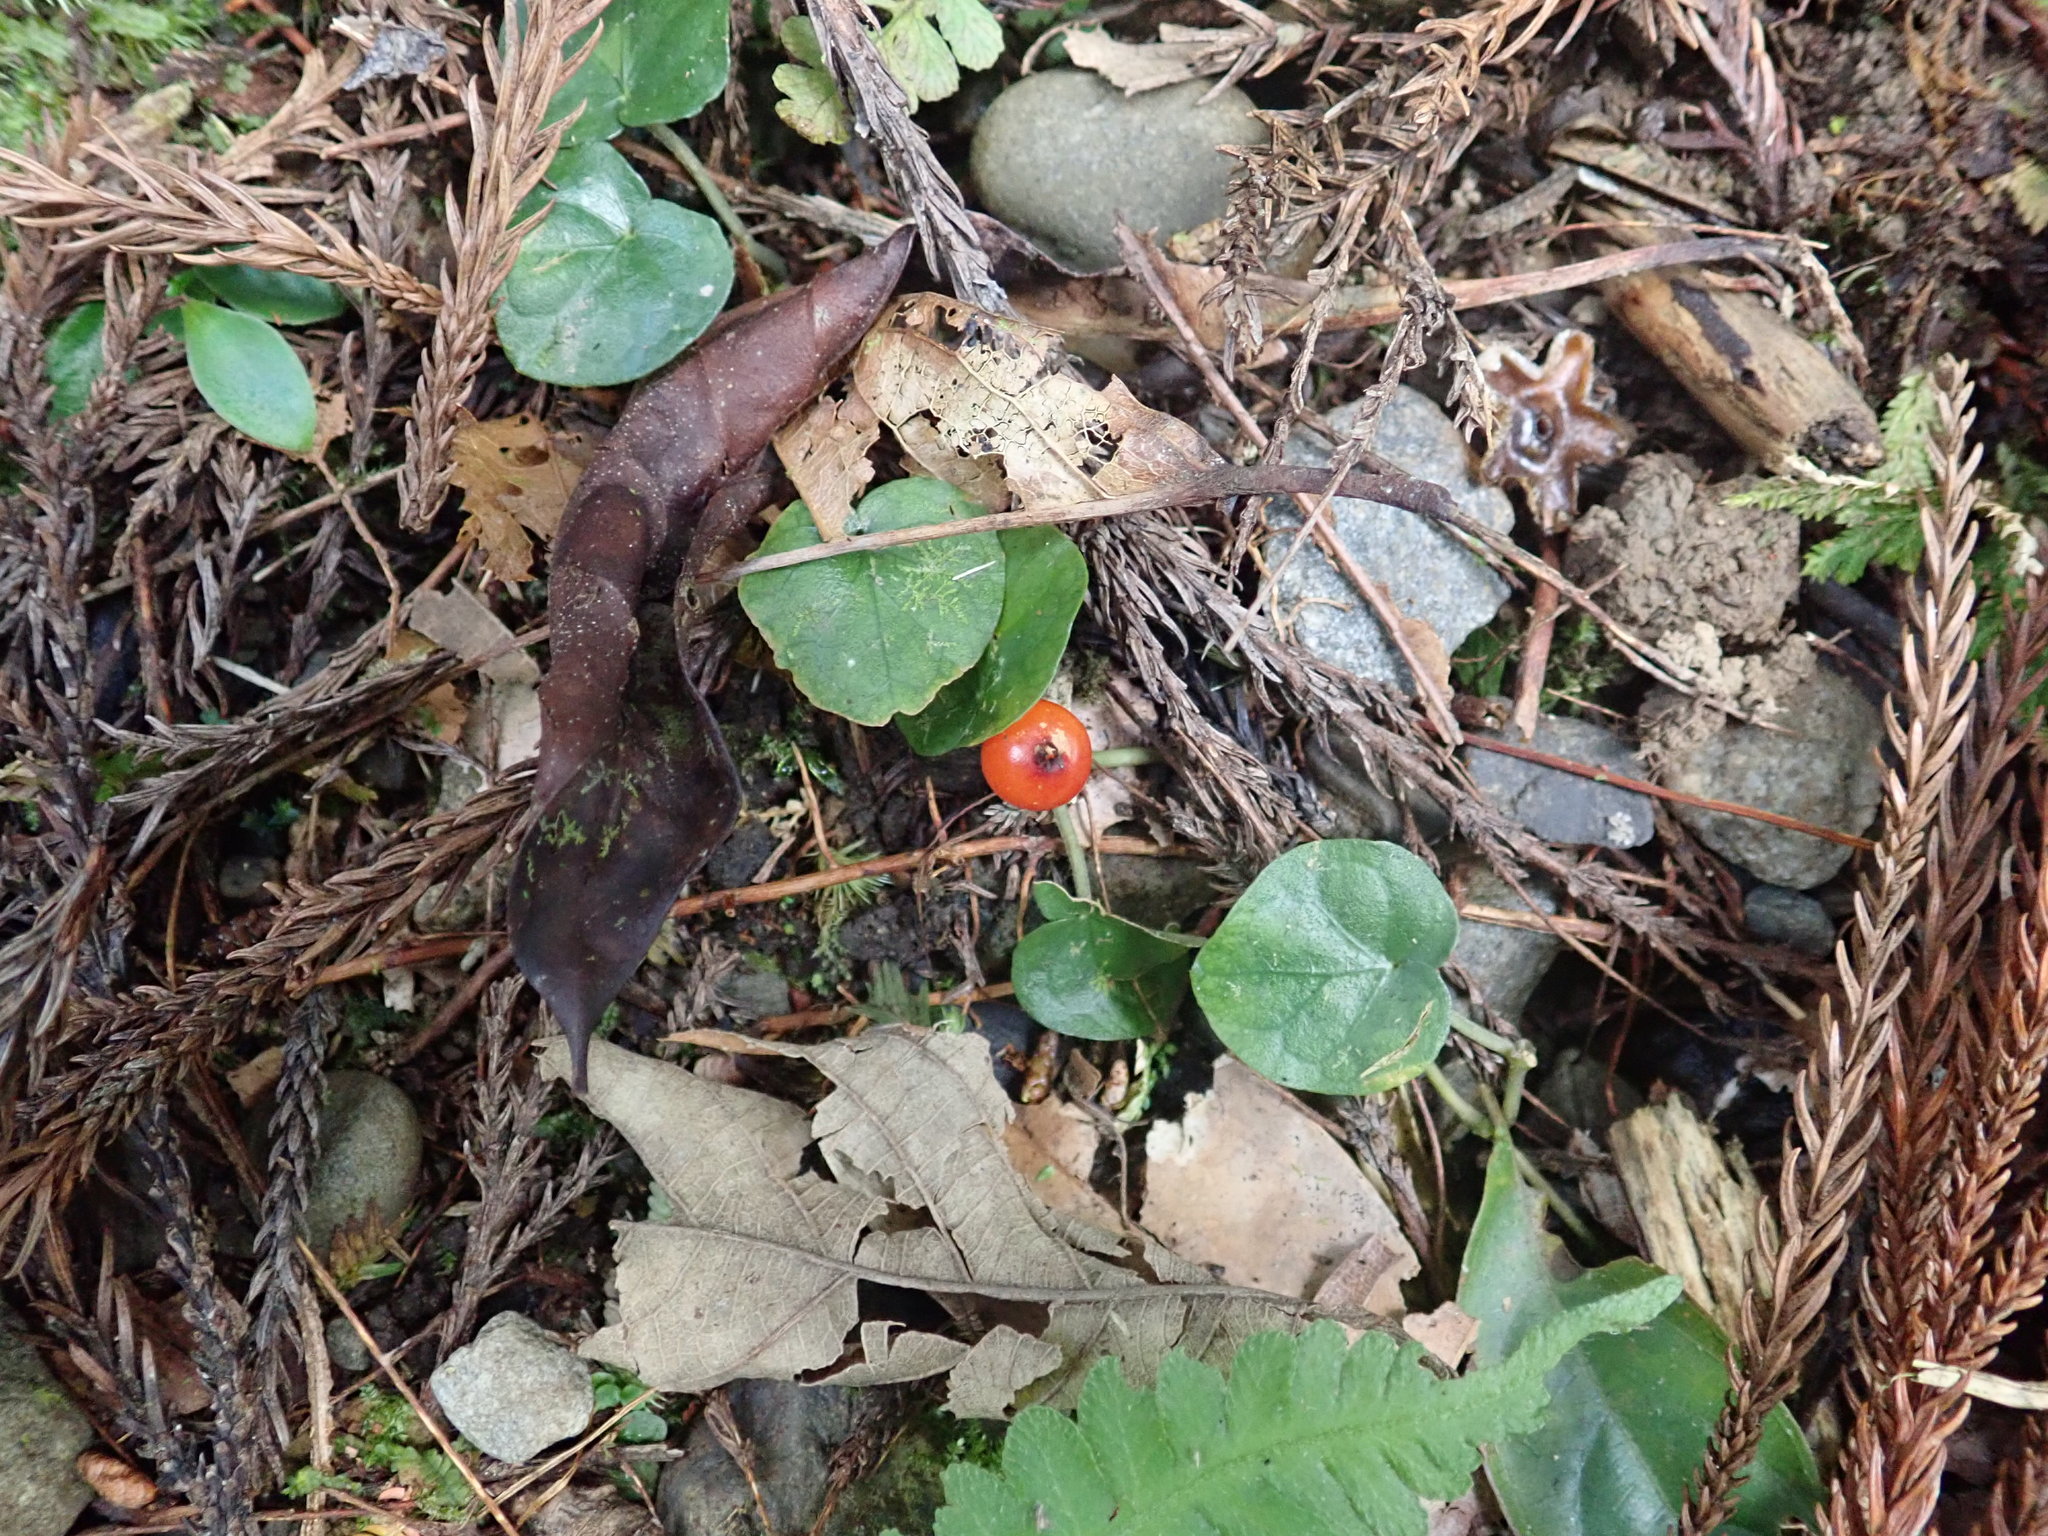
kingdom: Plantae
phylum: Tracheophyta
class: Magnoliopsida
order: Gentianales
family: Rubiaceae
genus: Geophila
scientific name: Geophila herbacea
